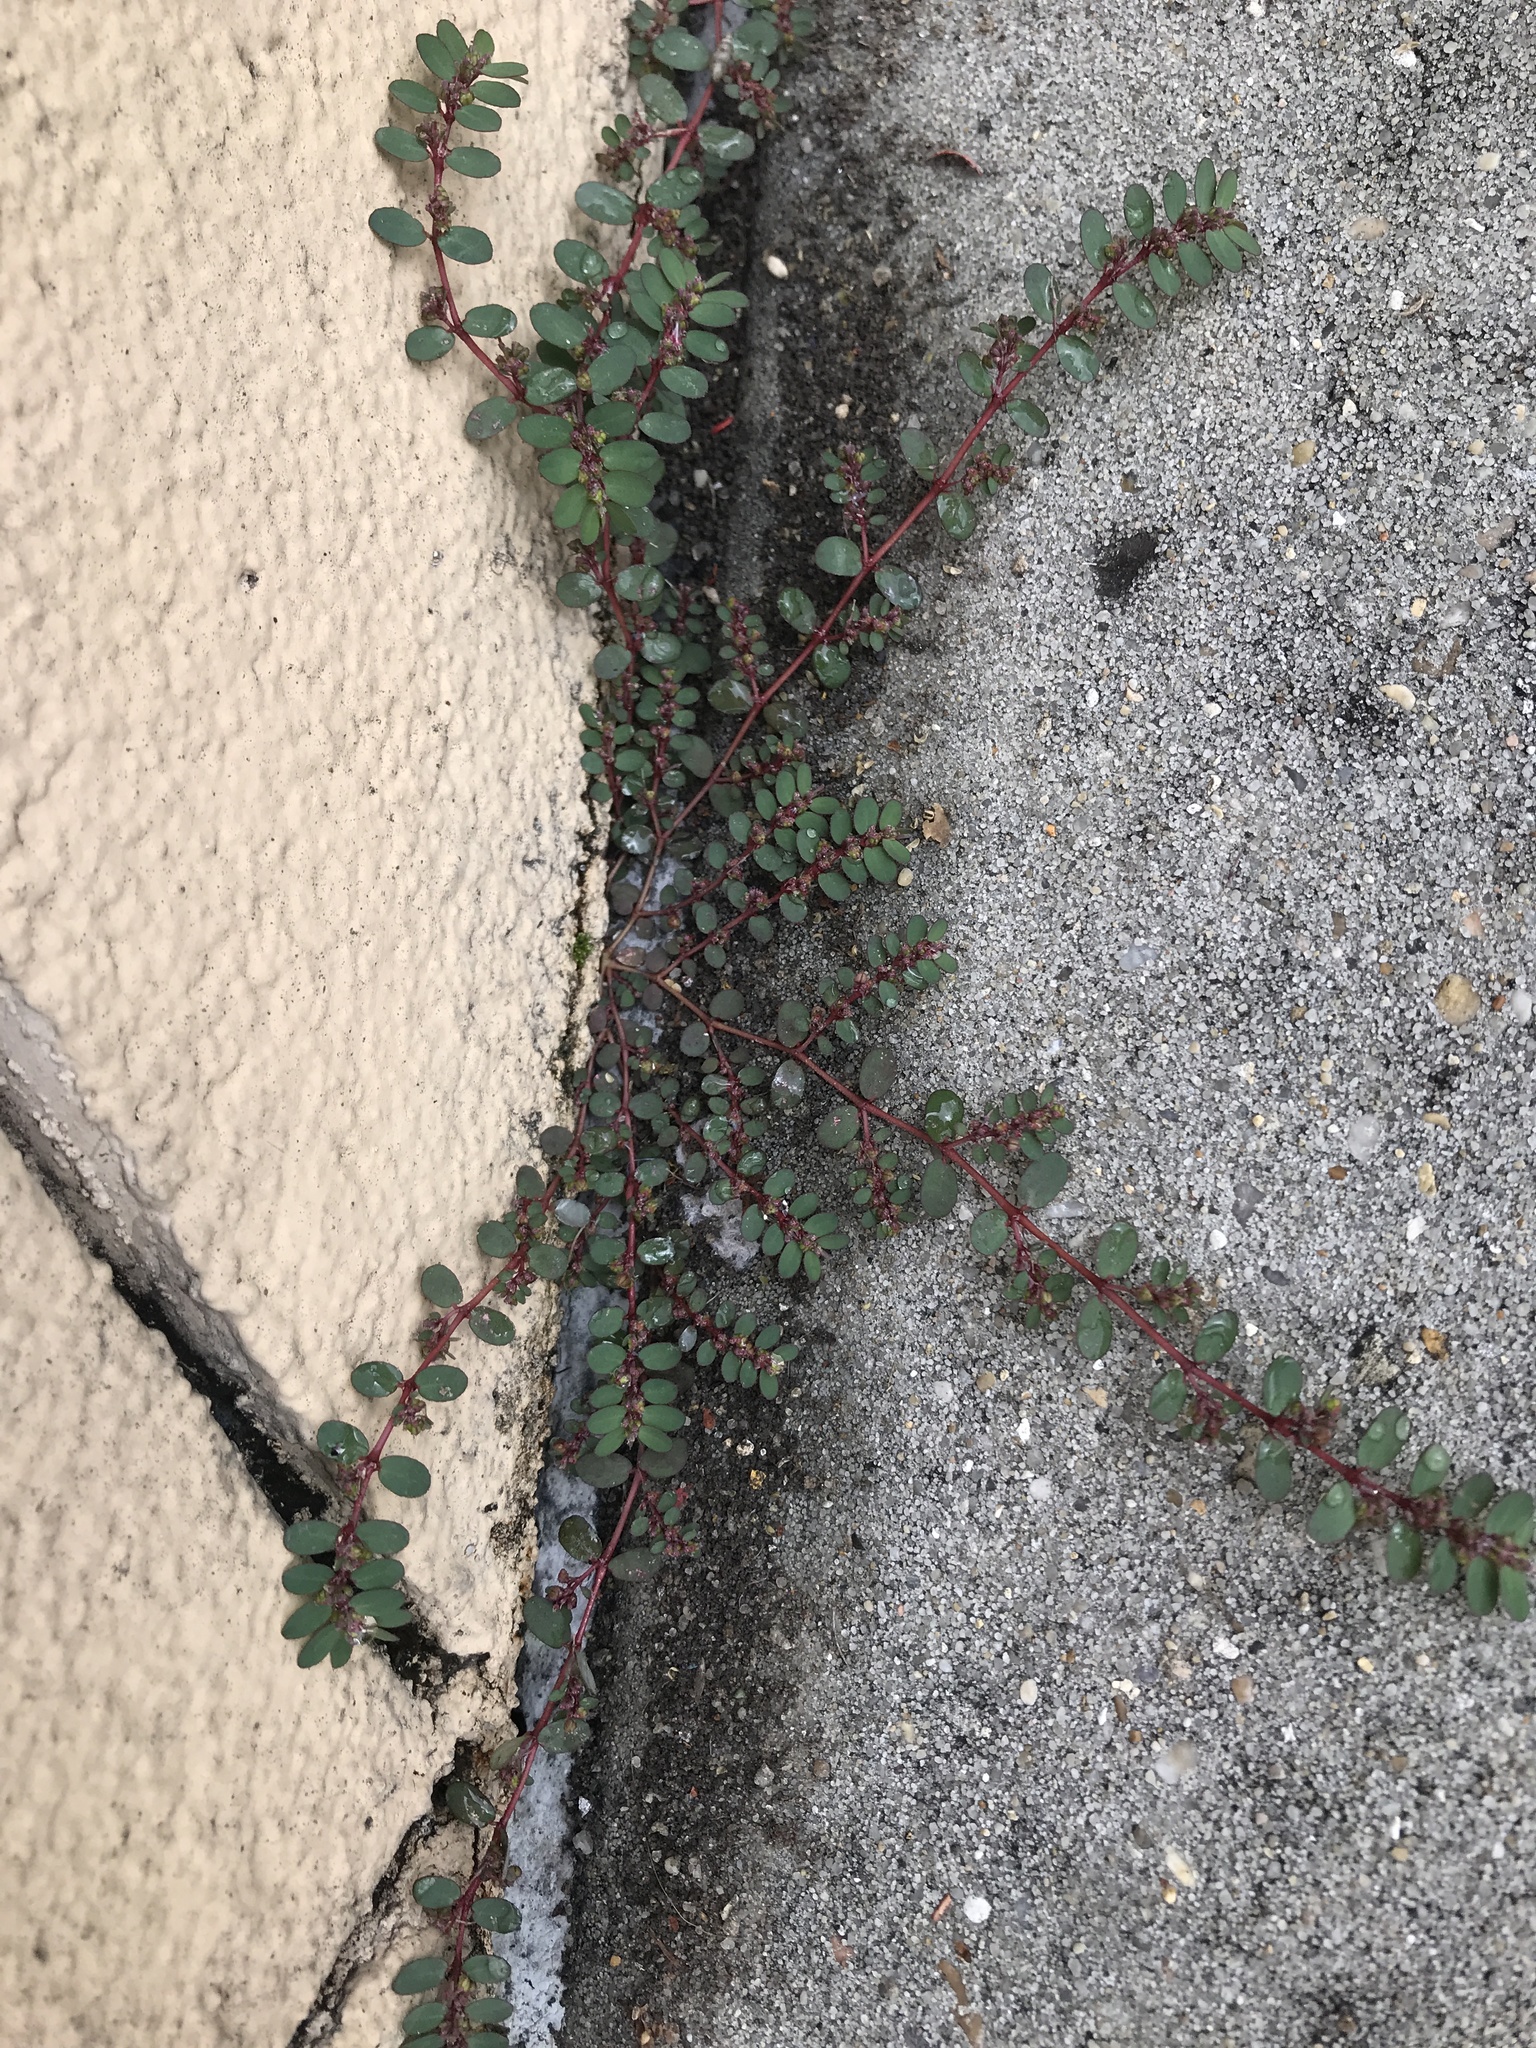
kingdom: Plantae
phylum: Tracheophyta
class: Magnoliopsida
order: Malpighiales
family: Euphorbiaceae
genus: Euphorbia
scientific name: Euphorbia prostrata
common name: Prostrate sandmat
